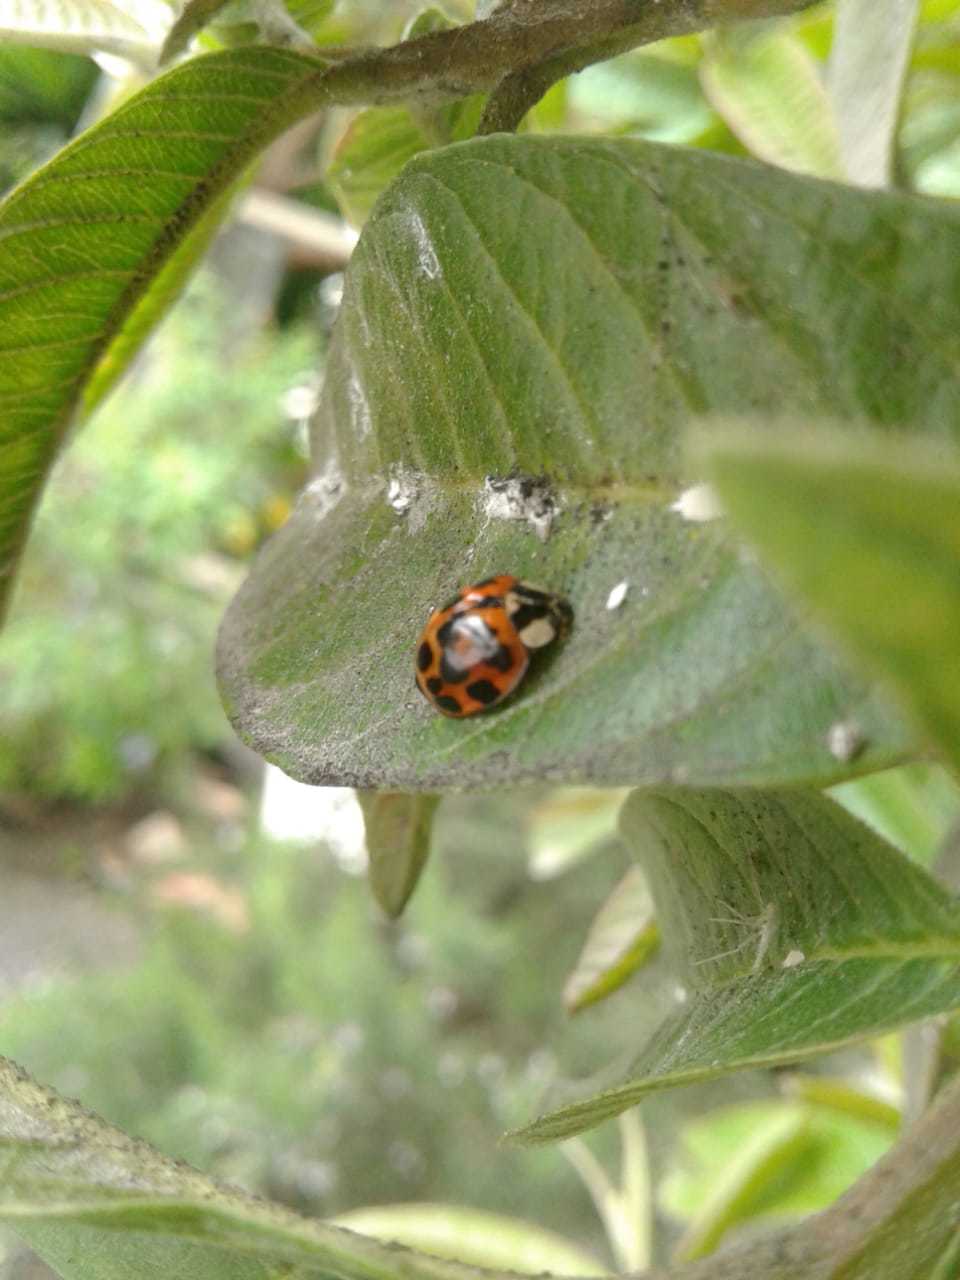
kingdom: Animalia
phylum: Arthropoda
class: Insecta
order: Coleoptera
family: Coccinellidae
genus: Harmonia
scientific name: Harmonia axyridis
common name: Harlequin ladybird
